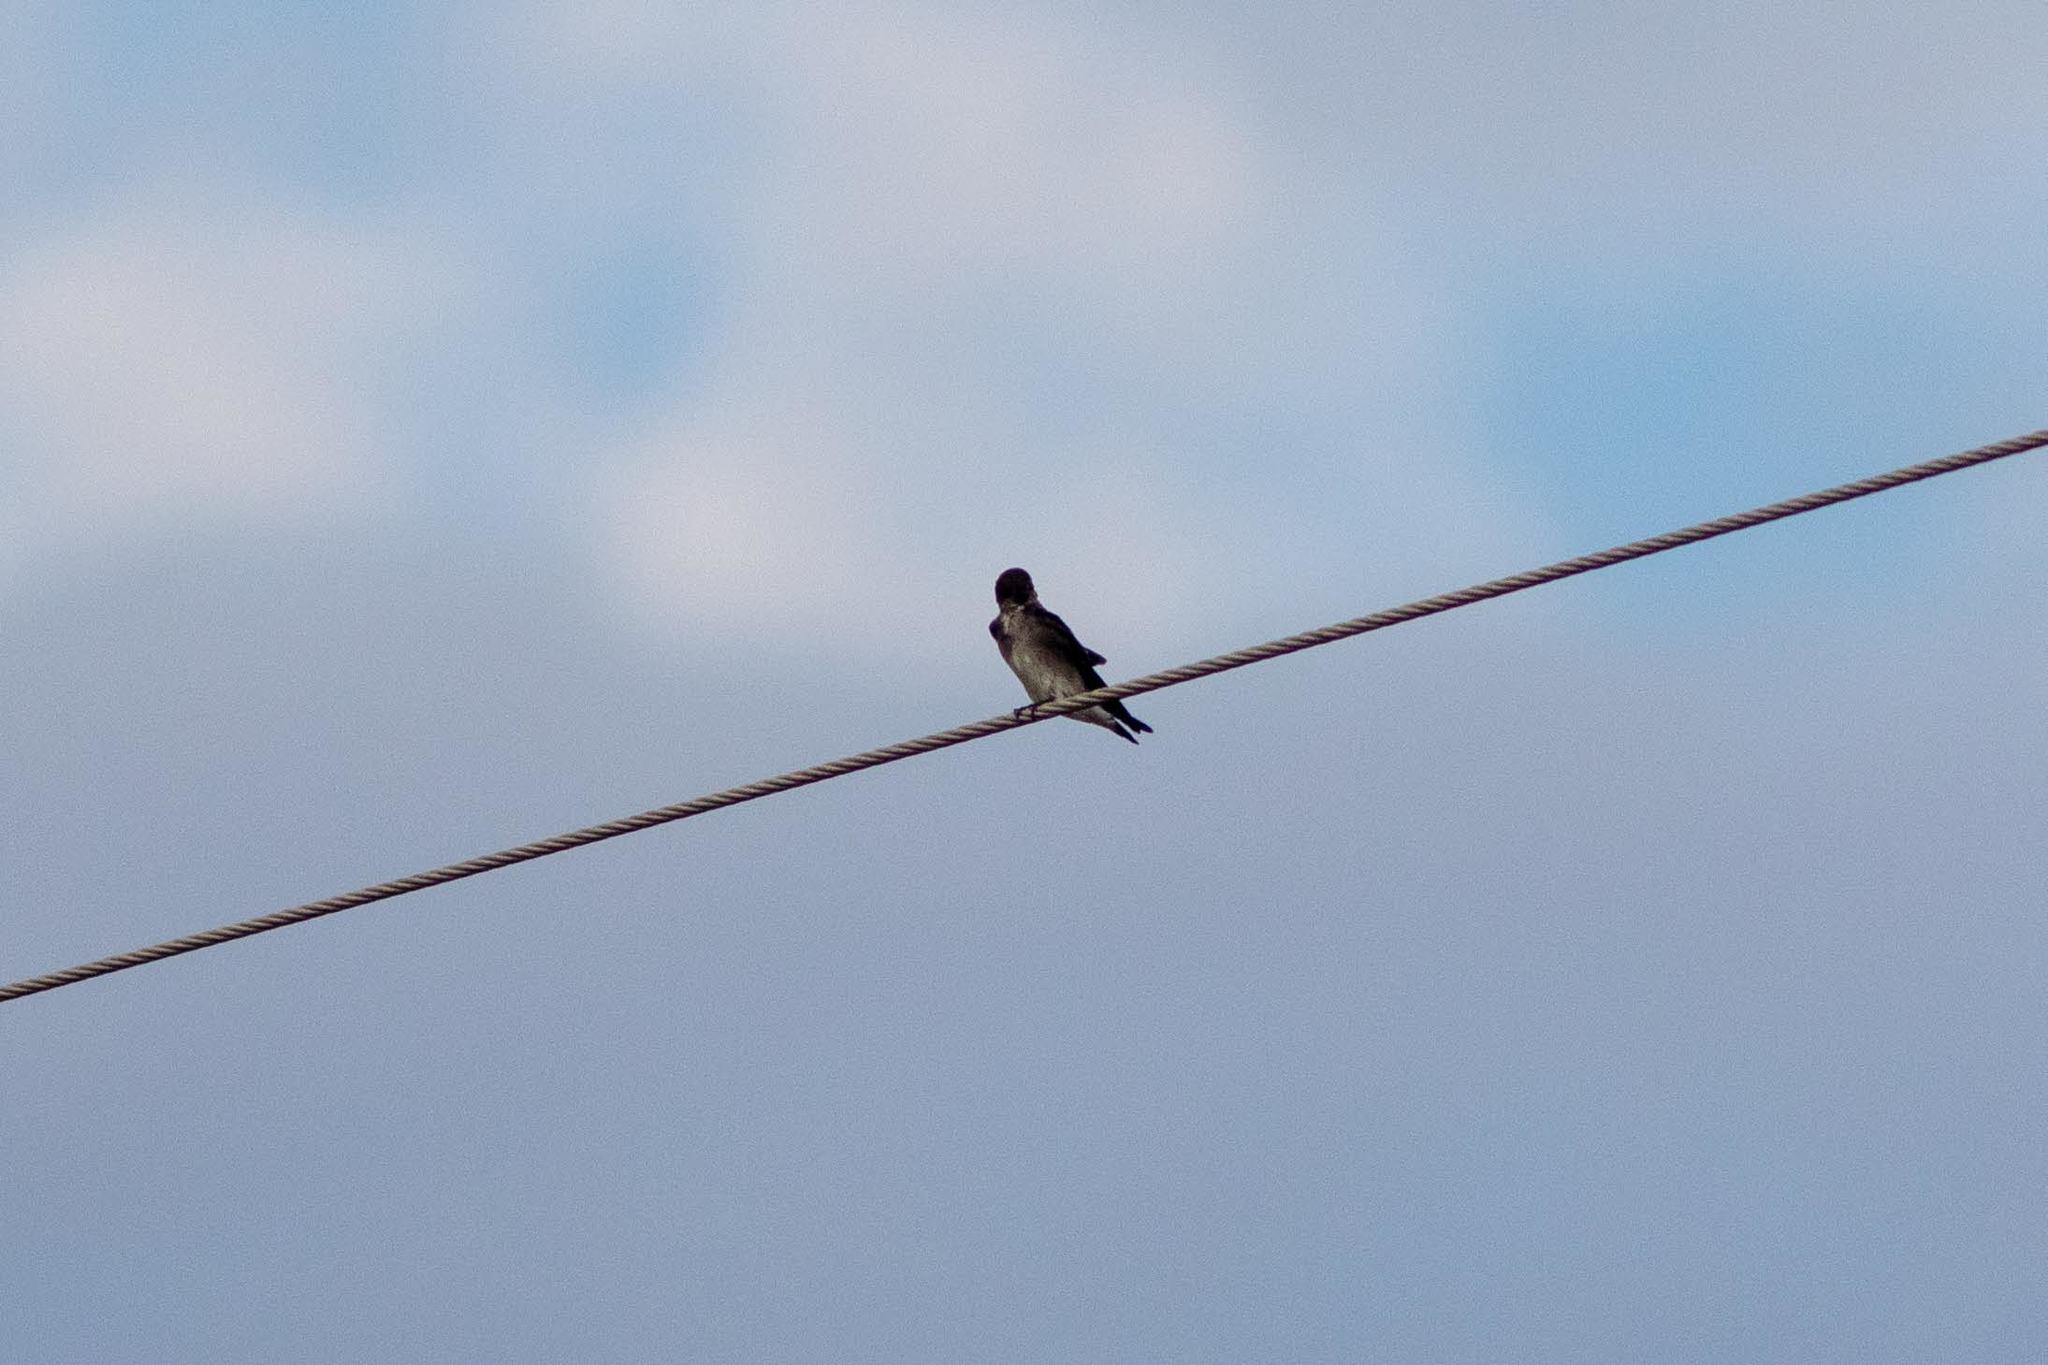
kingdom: Animalia
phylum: Chordata
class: Aves
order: Passeriformes
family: Hirundinidae
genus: Stelgidopteryx
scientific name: Stelgidopteryx serripennis
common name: Northern rough-winged swallow
